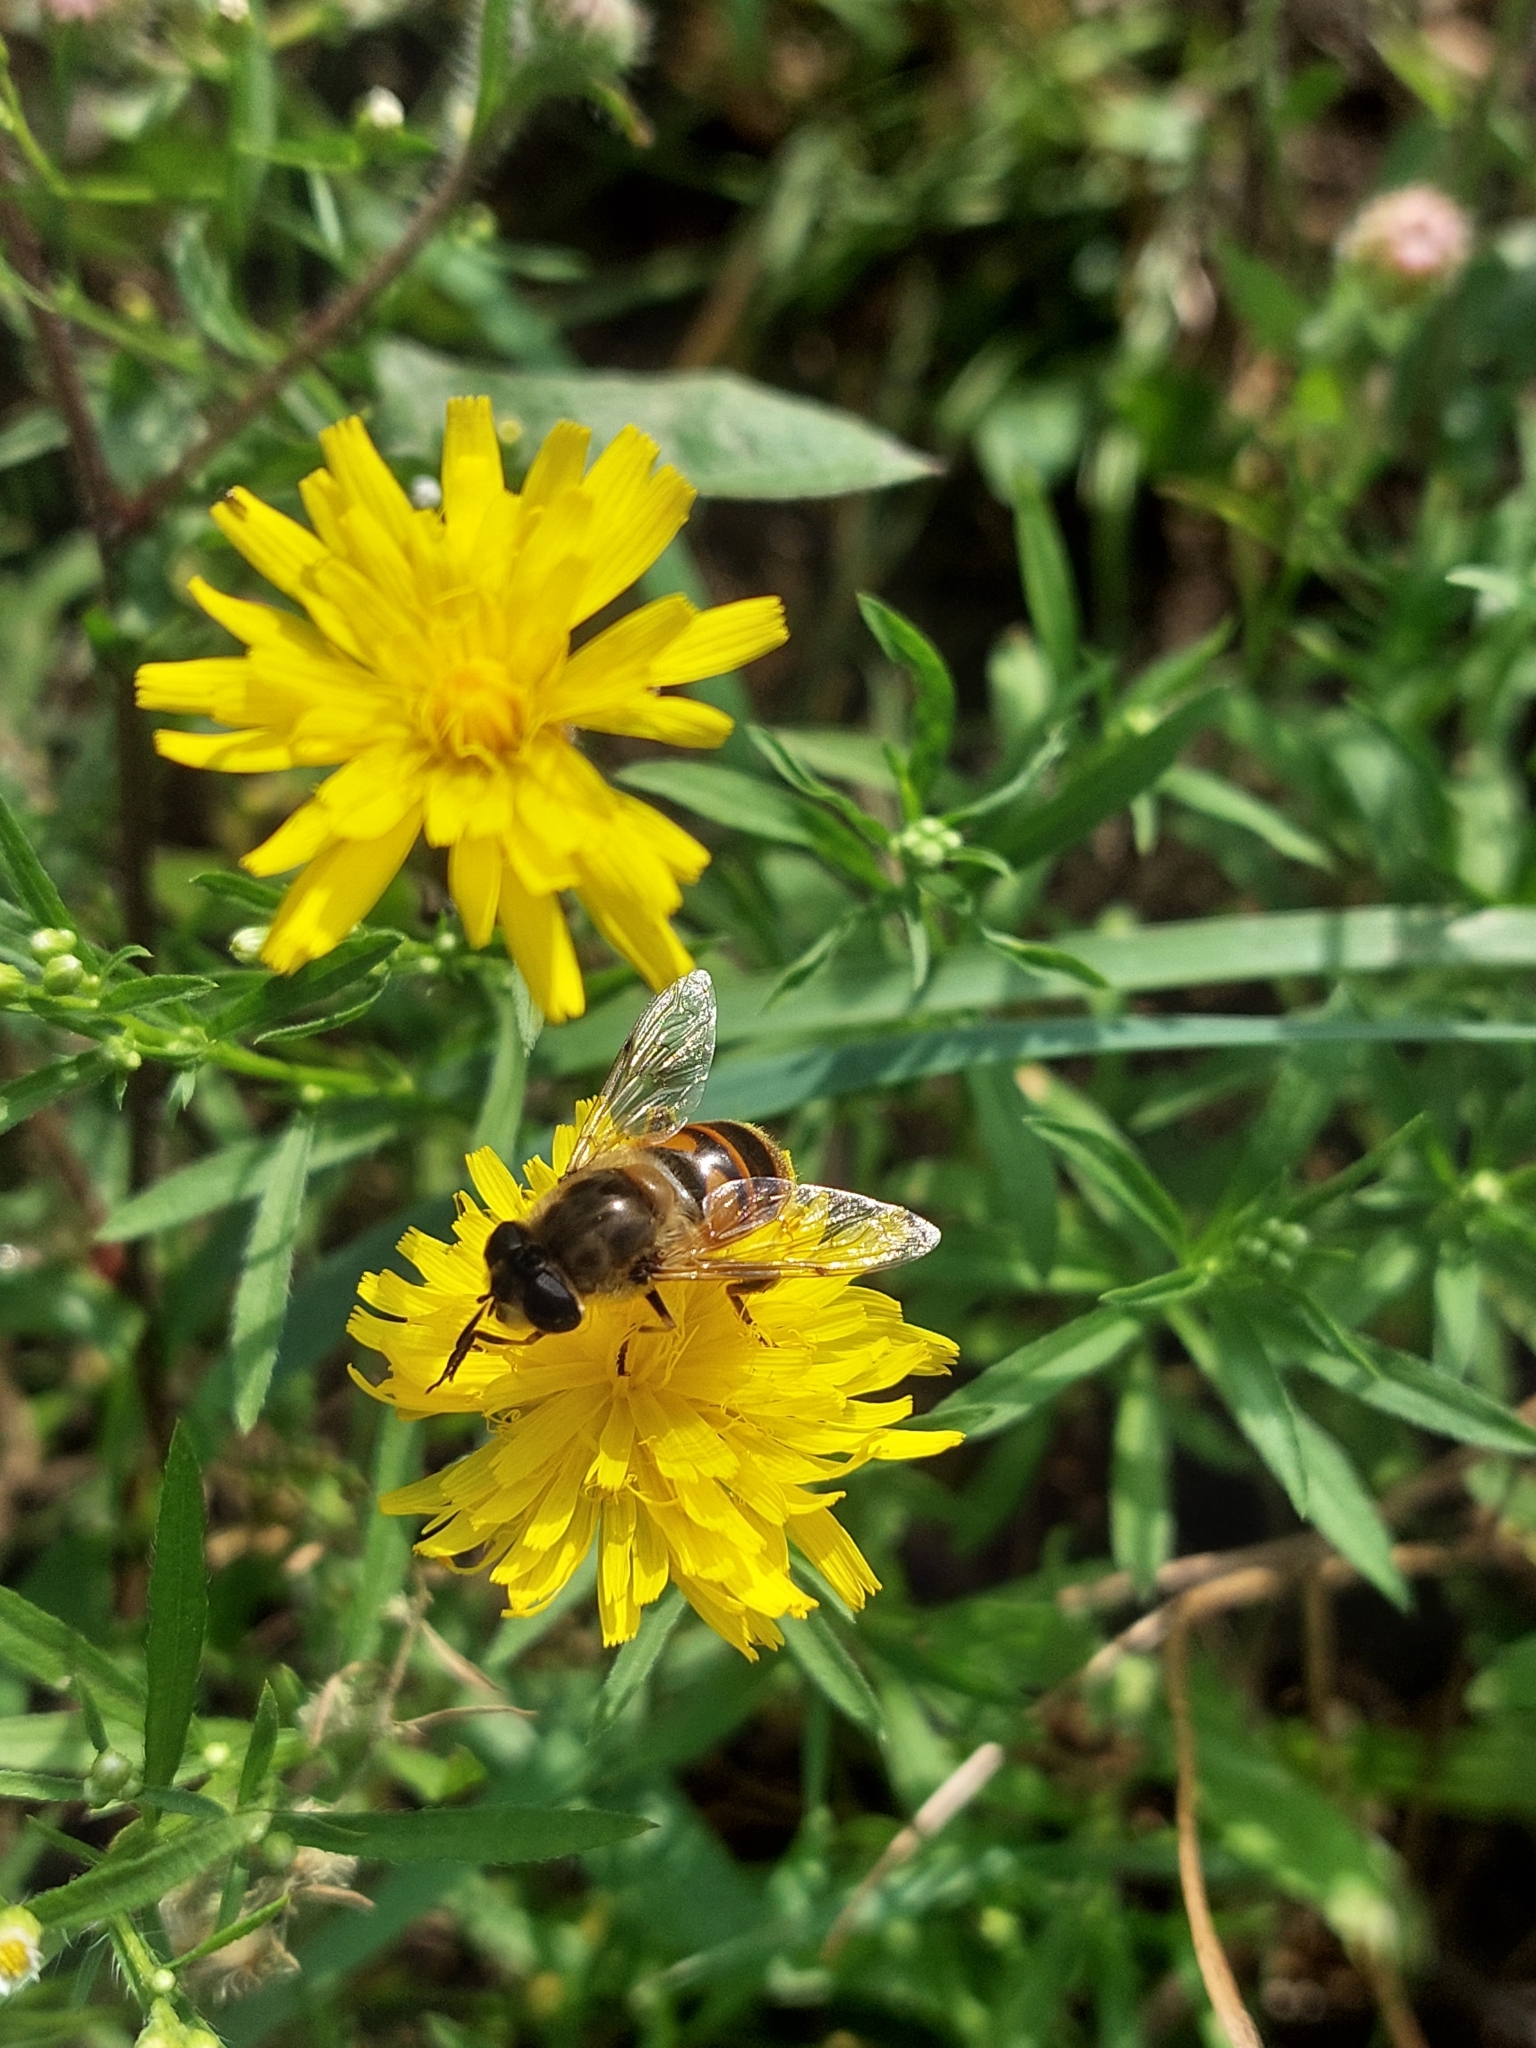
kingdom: Animalia
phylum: Arthropoda
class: Insecta
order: Diptera
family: Syrphidae
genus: Eristalis
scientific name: Eristalis tenax
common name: Drone fly
